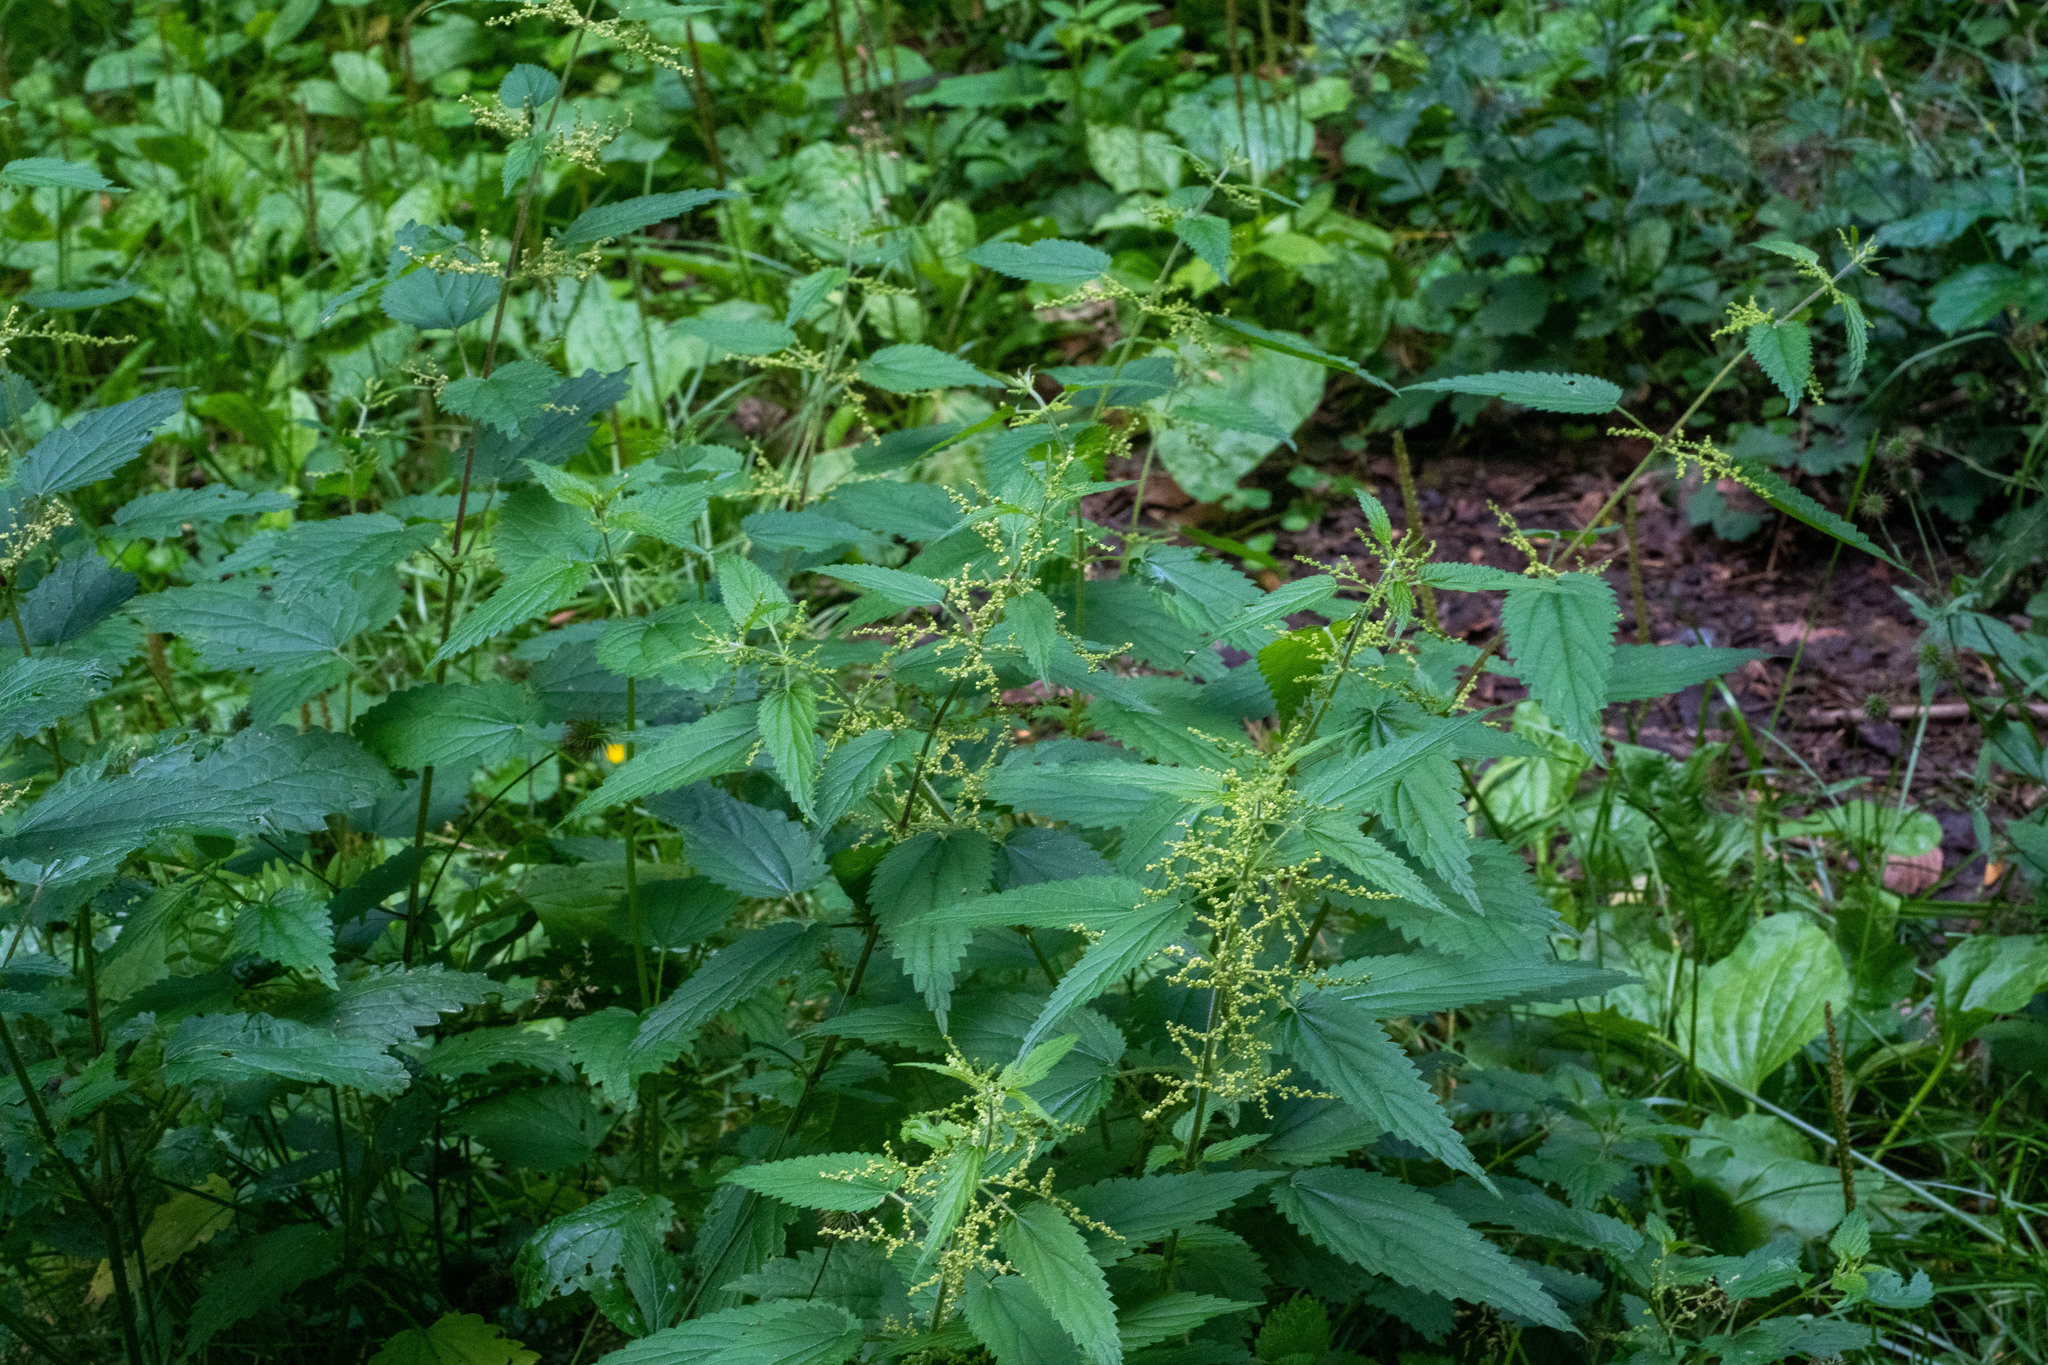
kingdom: Plantae
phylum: Tracheophyta
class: Magnoliopsida
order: Rosales
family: Urticaceae
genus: Urtica
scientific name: Urtica dioica
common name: Common nettle
